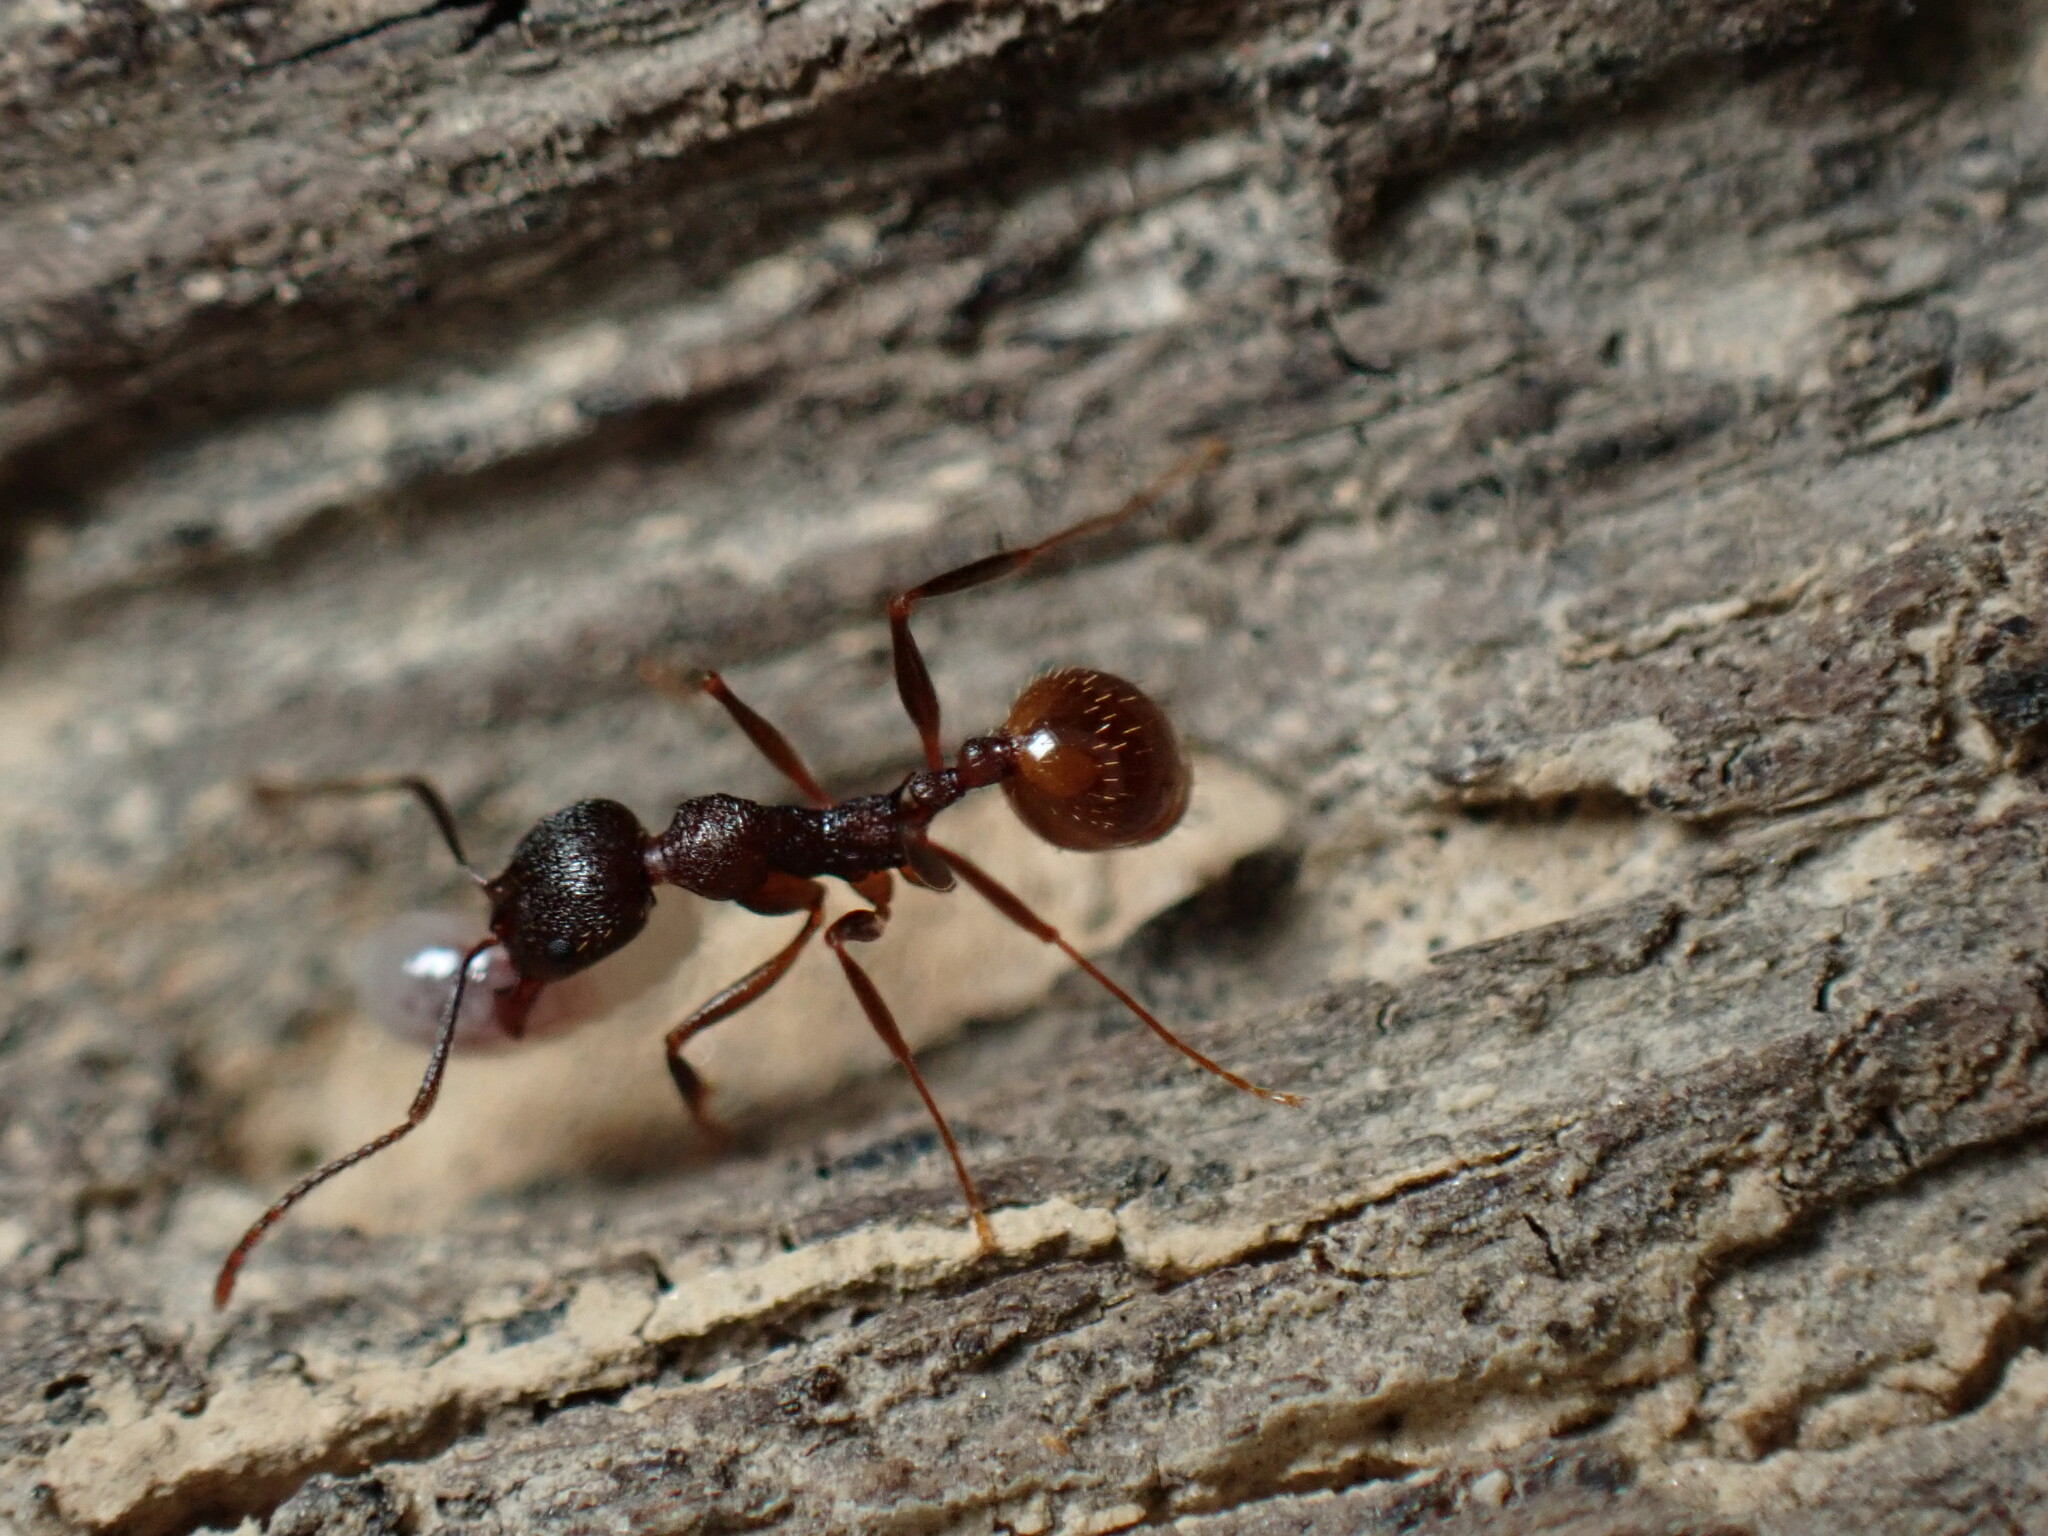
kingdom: Animalia
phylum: Arthropoda
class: Insecta
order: Hymenoptera
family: Formicidae
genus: Aphaenogaster
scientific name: Aphaenogaster fulva
